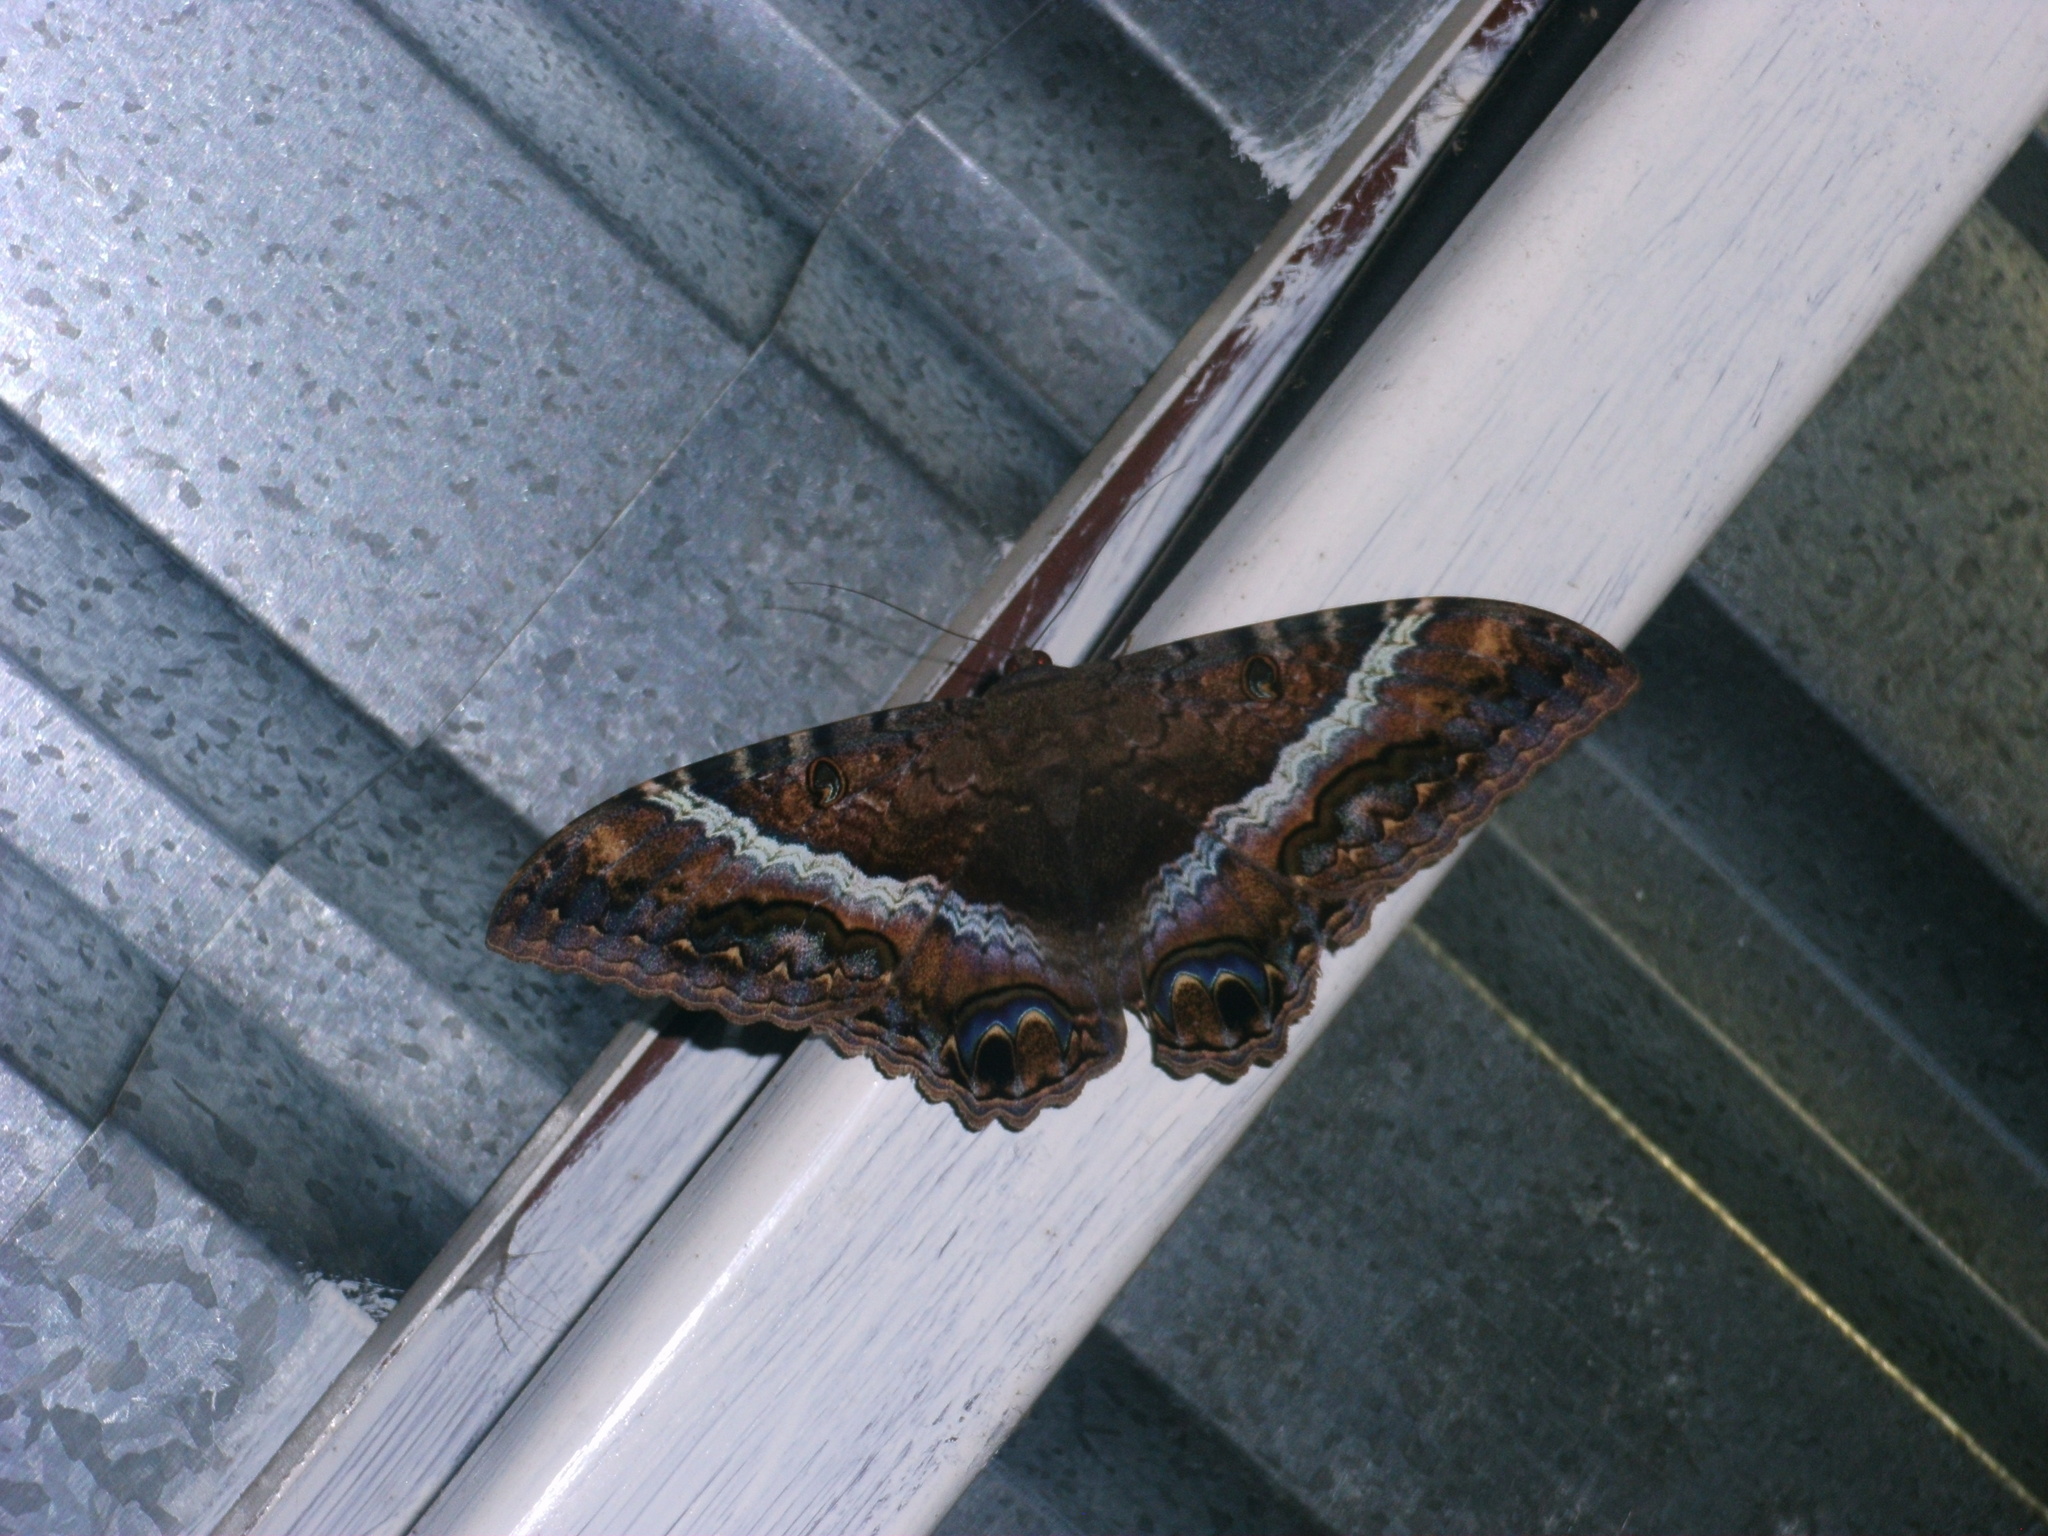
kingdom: Animalia
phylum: Arthropoda
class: Insecta
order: Lepidoptera
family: Erebidae
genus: Ascalapha
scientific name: Ascalapha odorata
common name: Black witch
